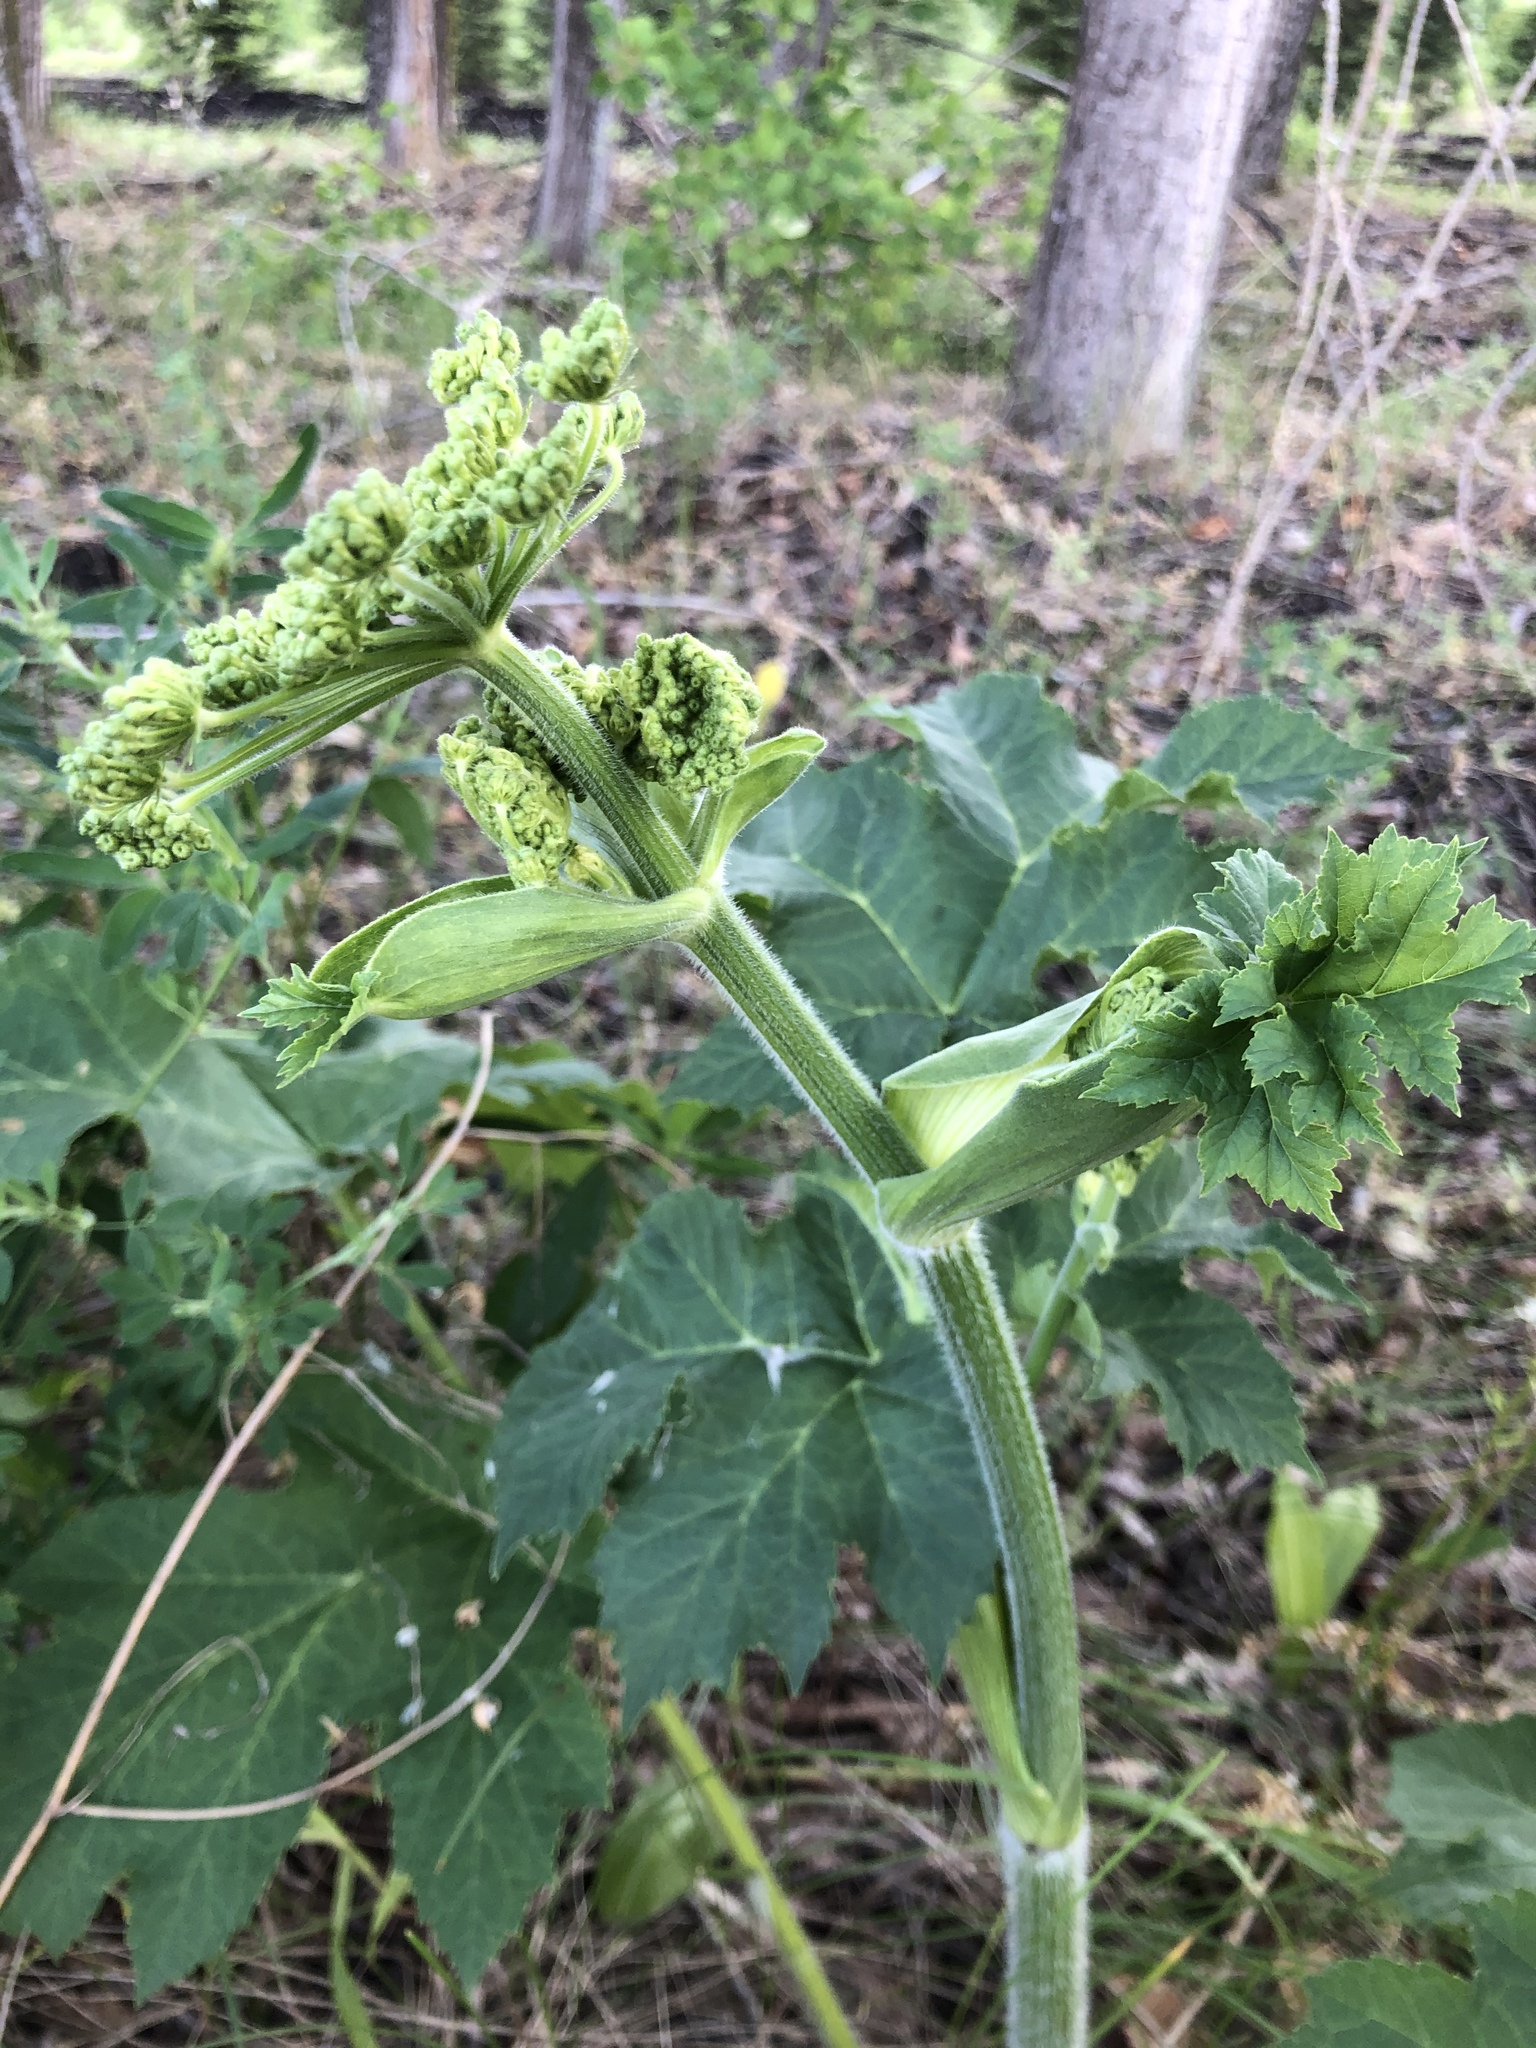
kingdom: Plantae
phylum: Tracheophyta
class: Magnoliopsida
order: Apiales
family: Apiaceae
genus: Heracleum
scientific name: Heracleum sphondylium
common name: Hogweed
